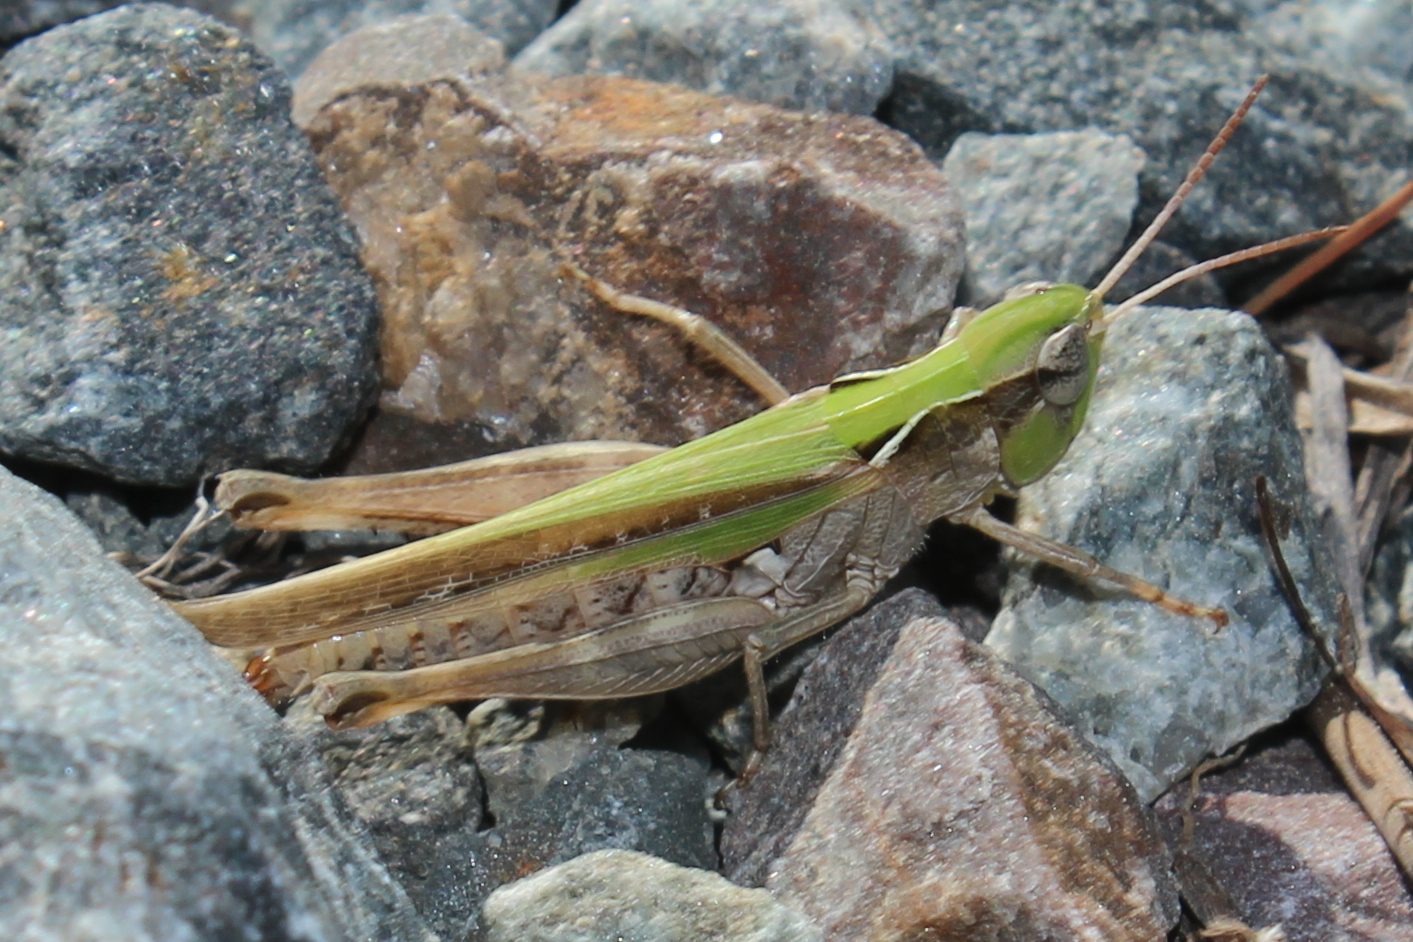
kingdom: Animalia
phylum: Arthropoda
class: Insecta
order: Orthoptera
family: Acrididae
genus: Orphulella
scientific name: Orphulella pelidna
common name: Spotted-wing grasshopper
